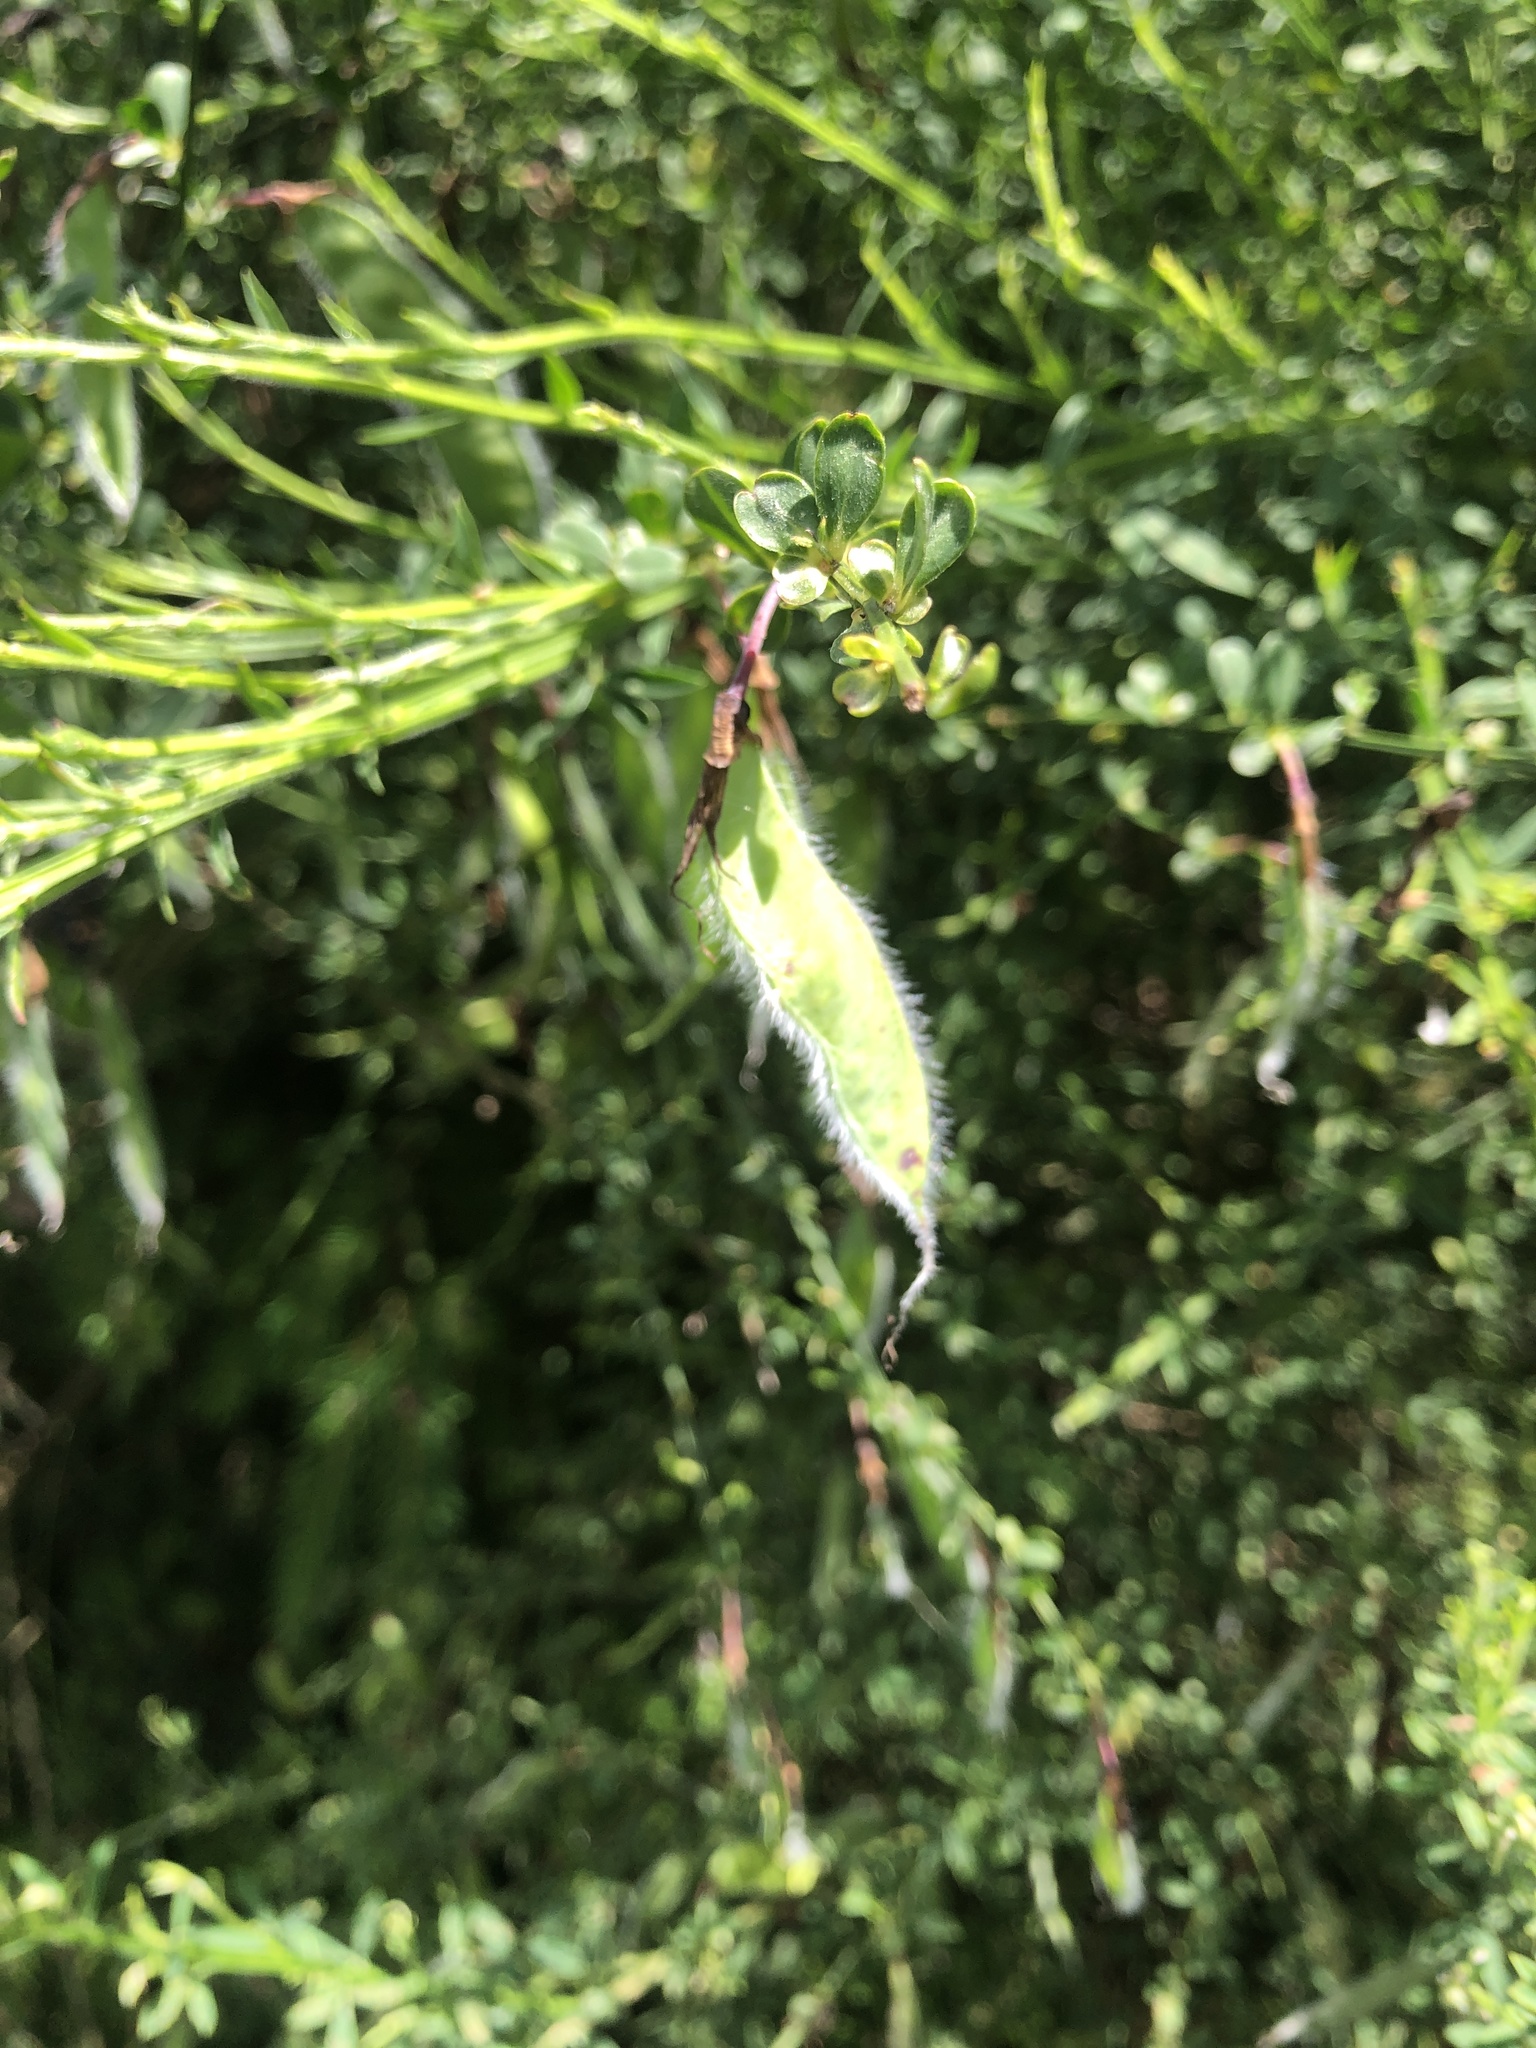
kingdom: Plantae
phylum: Tracheophyta
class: Magnoliopsida
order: Fabales
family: Fabaceae
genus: Cytisus
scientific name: Cytisus scoparius
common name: Scotch broom
